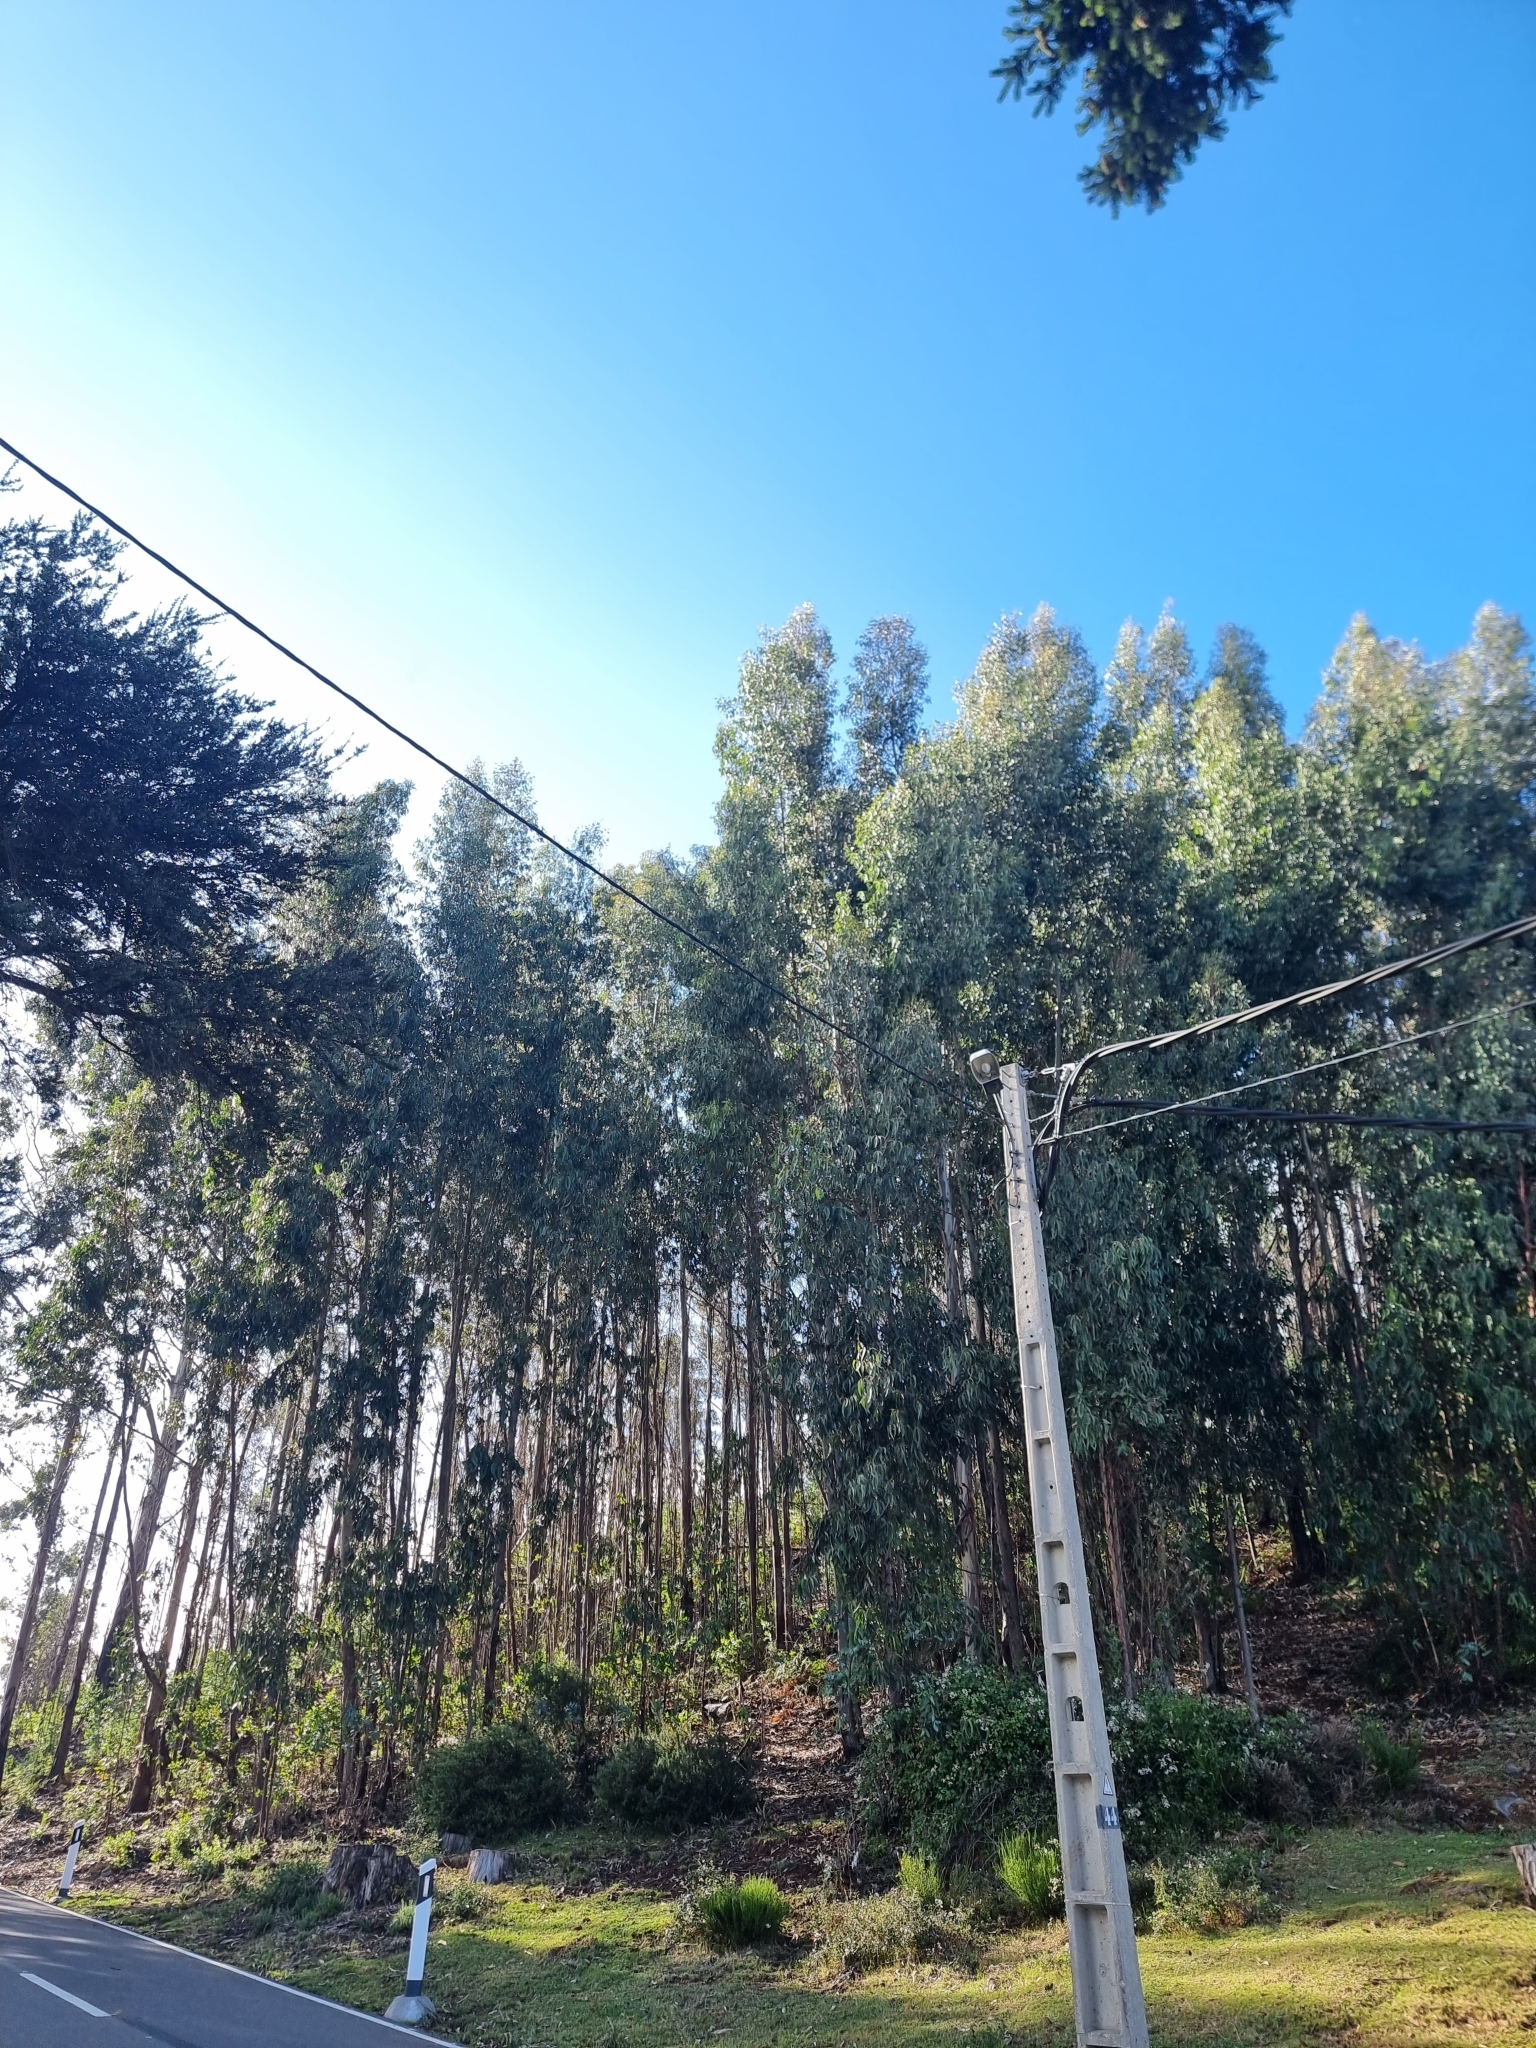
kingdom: Plantae
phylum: Tracheophyta
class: Magnoliopsida
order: Myrtales
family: Myrtaceae
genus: Eucalyptus
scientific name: Eucalyptus globulus
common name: Southern blue-gum
